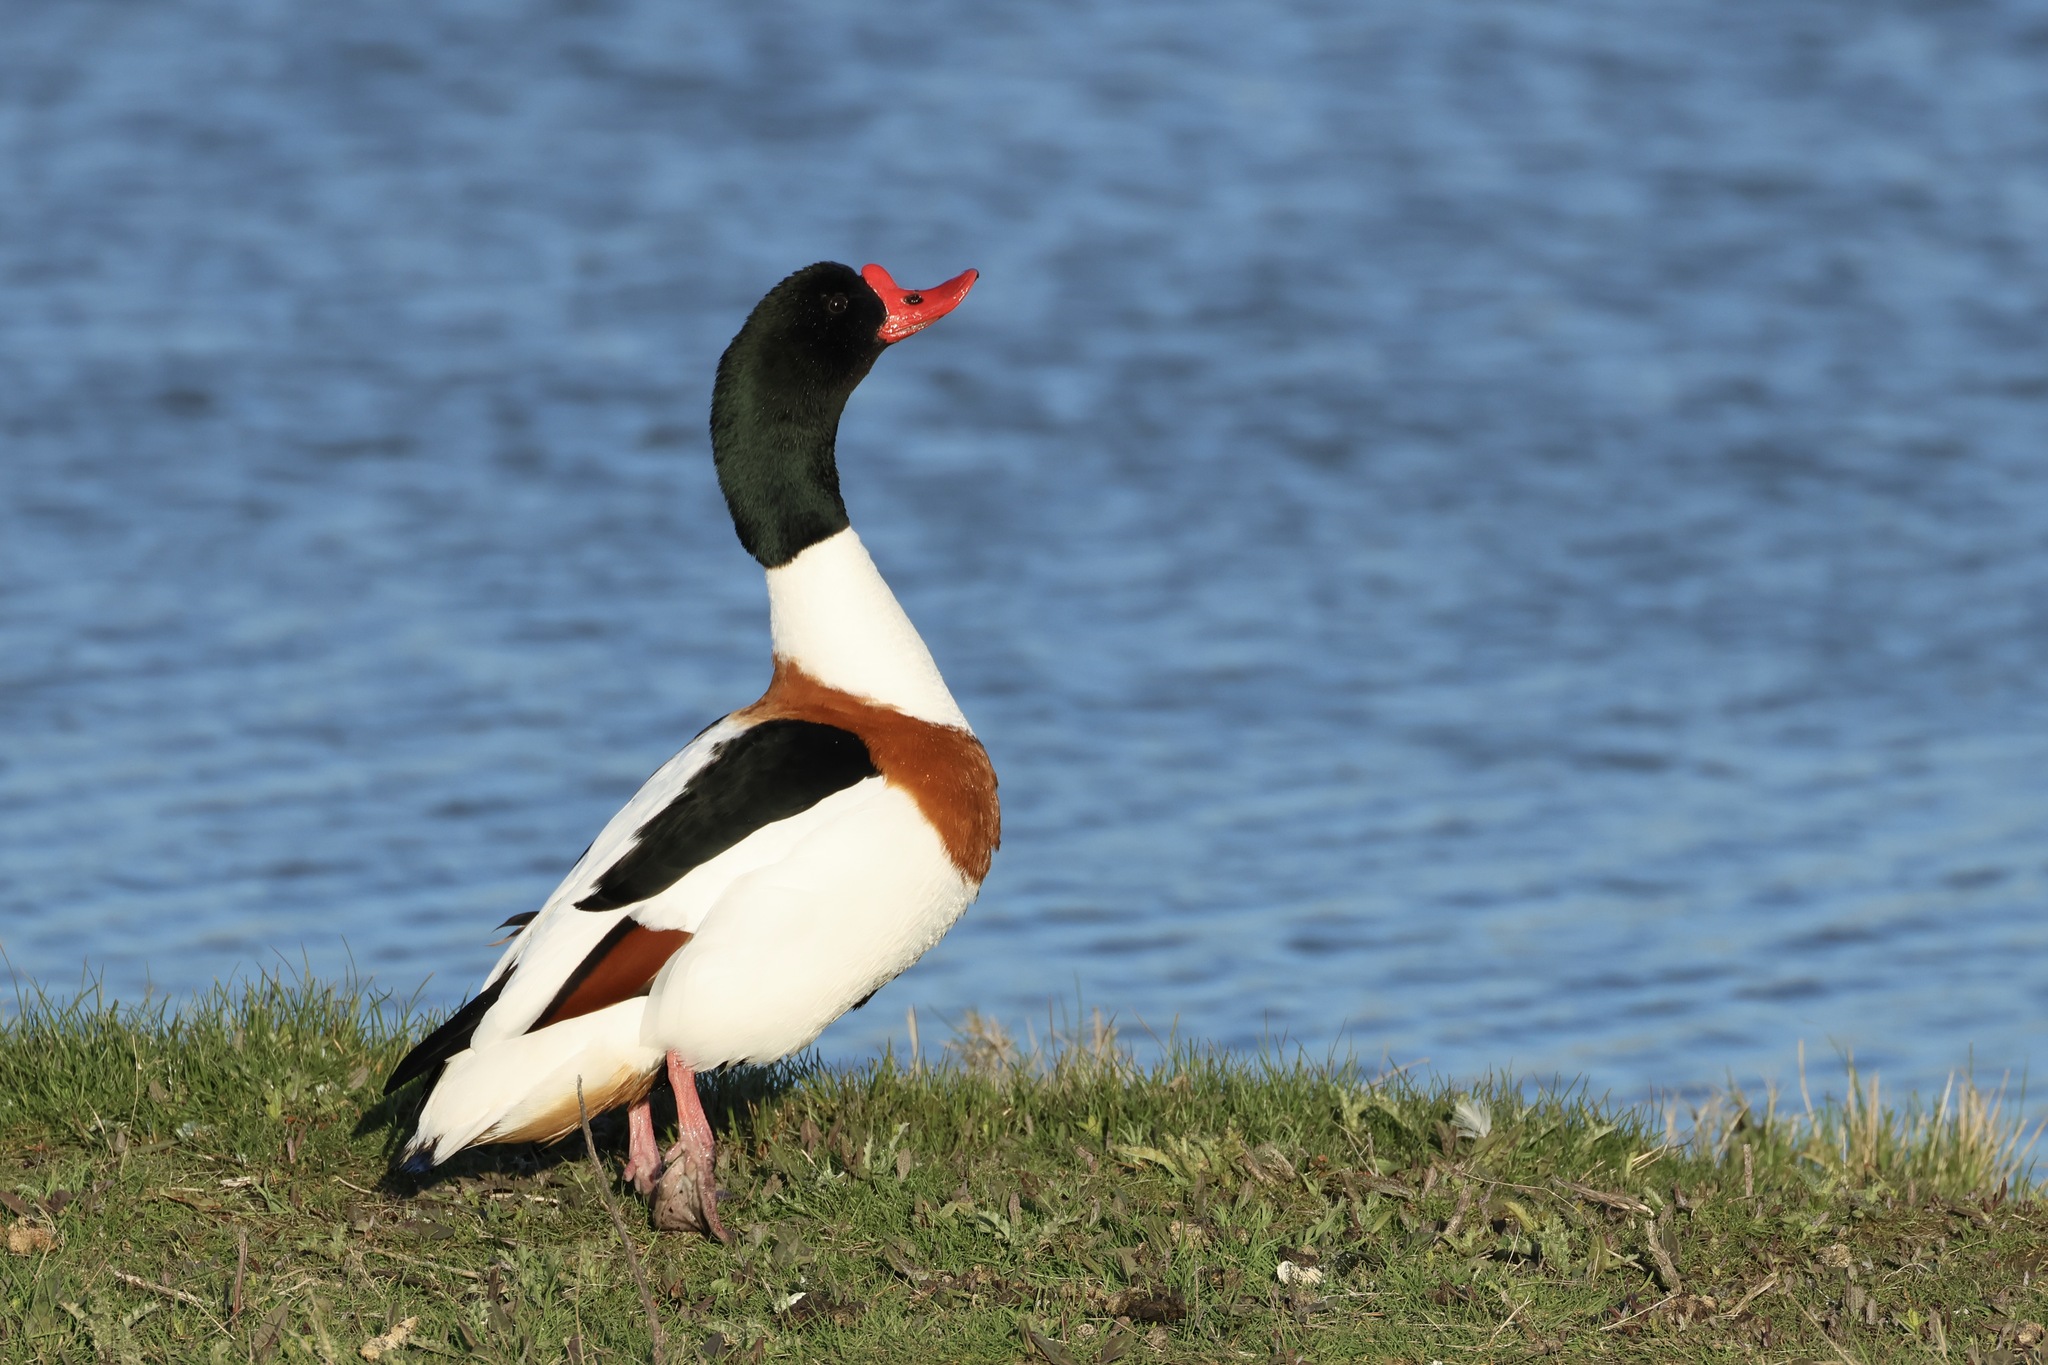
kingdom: Animalia
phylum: Chordata
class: Aves
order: Anseriformes
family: Anatidae
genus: Tadorna
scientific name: Tadorna tadorna
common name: Common shelduck
